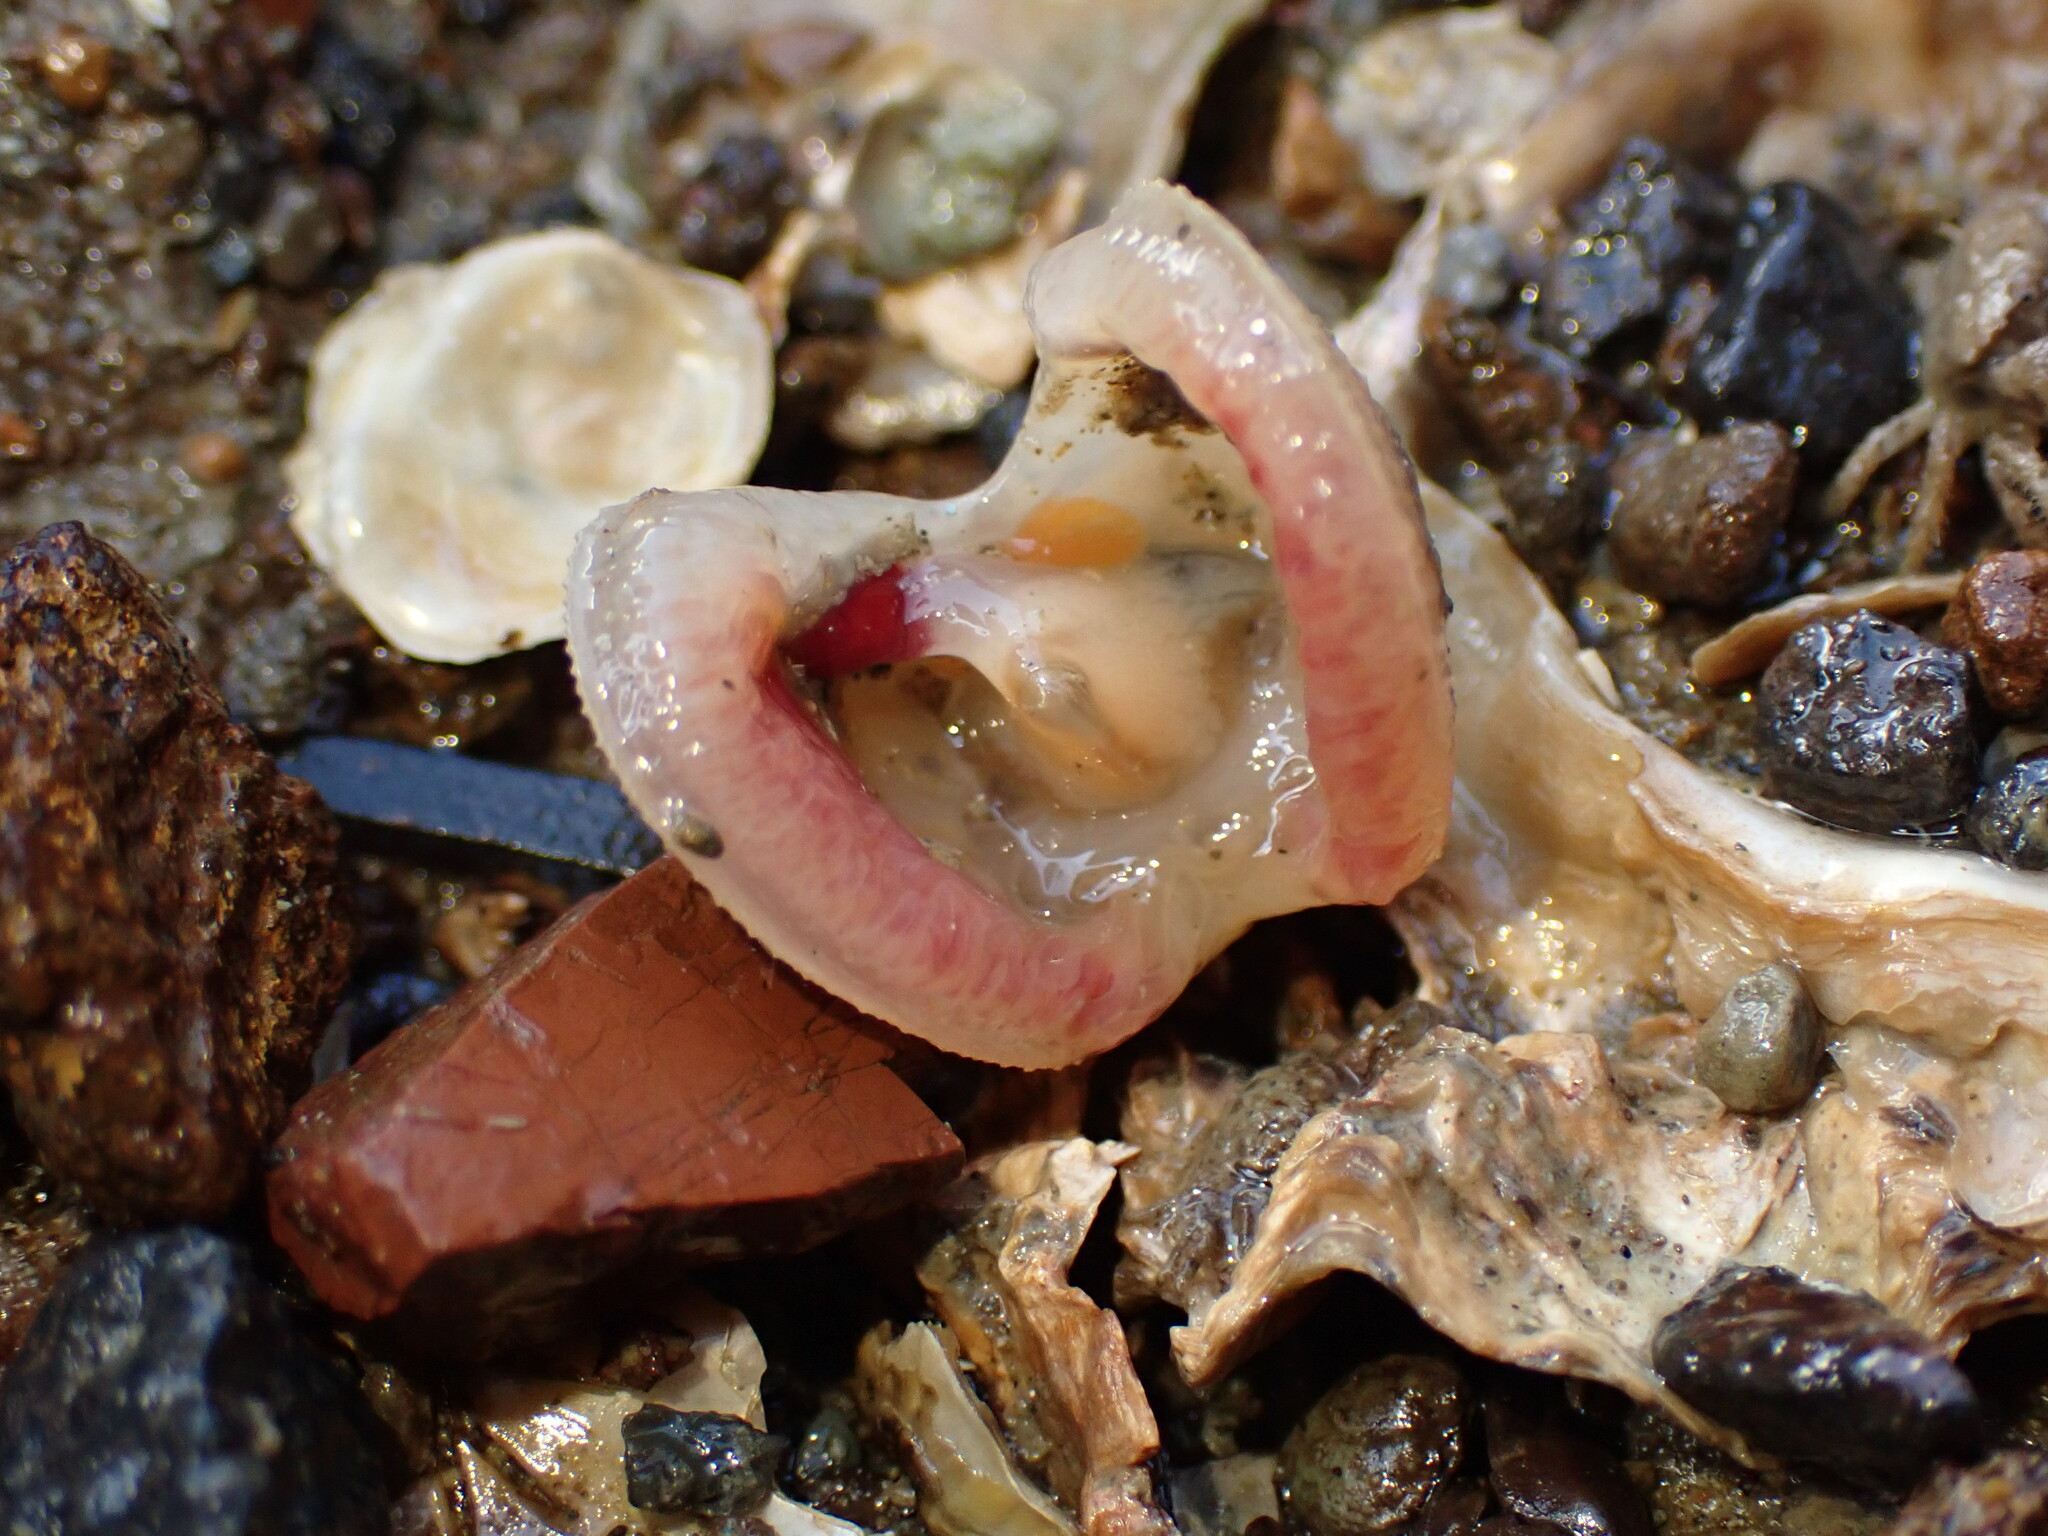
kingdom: Animalia
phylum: Mollusca
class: Bivalvia
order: Limida
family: Limidae
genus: Limaria
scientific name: Limaria orientalis
